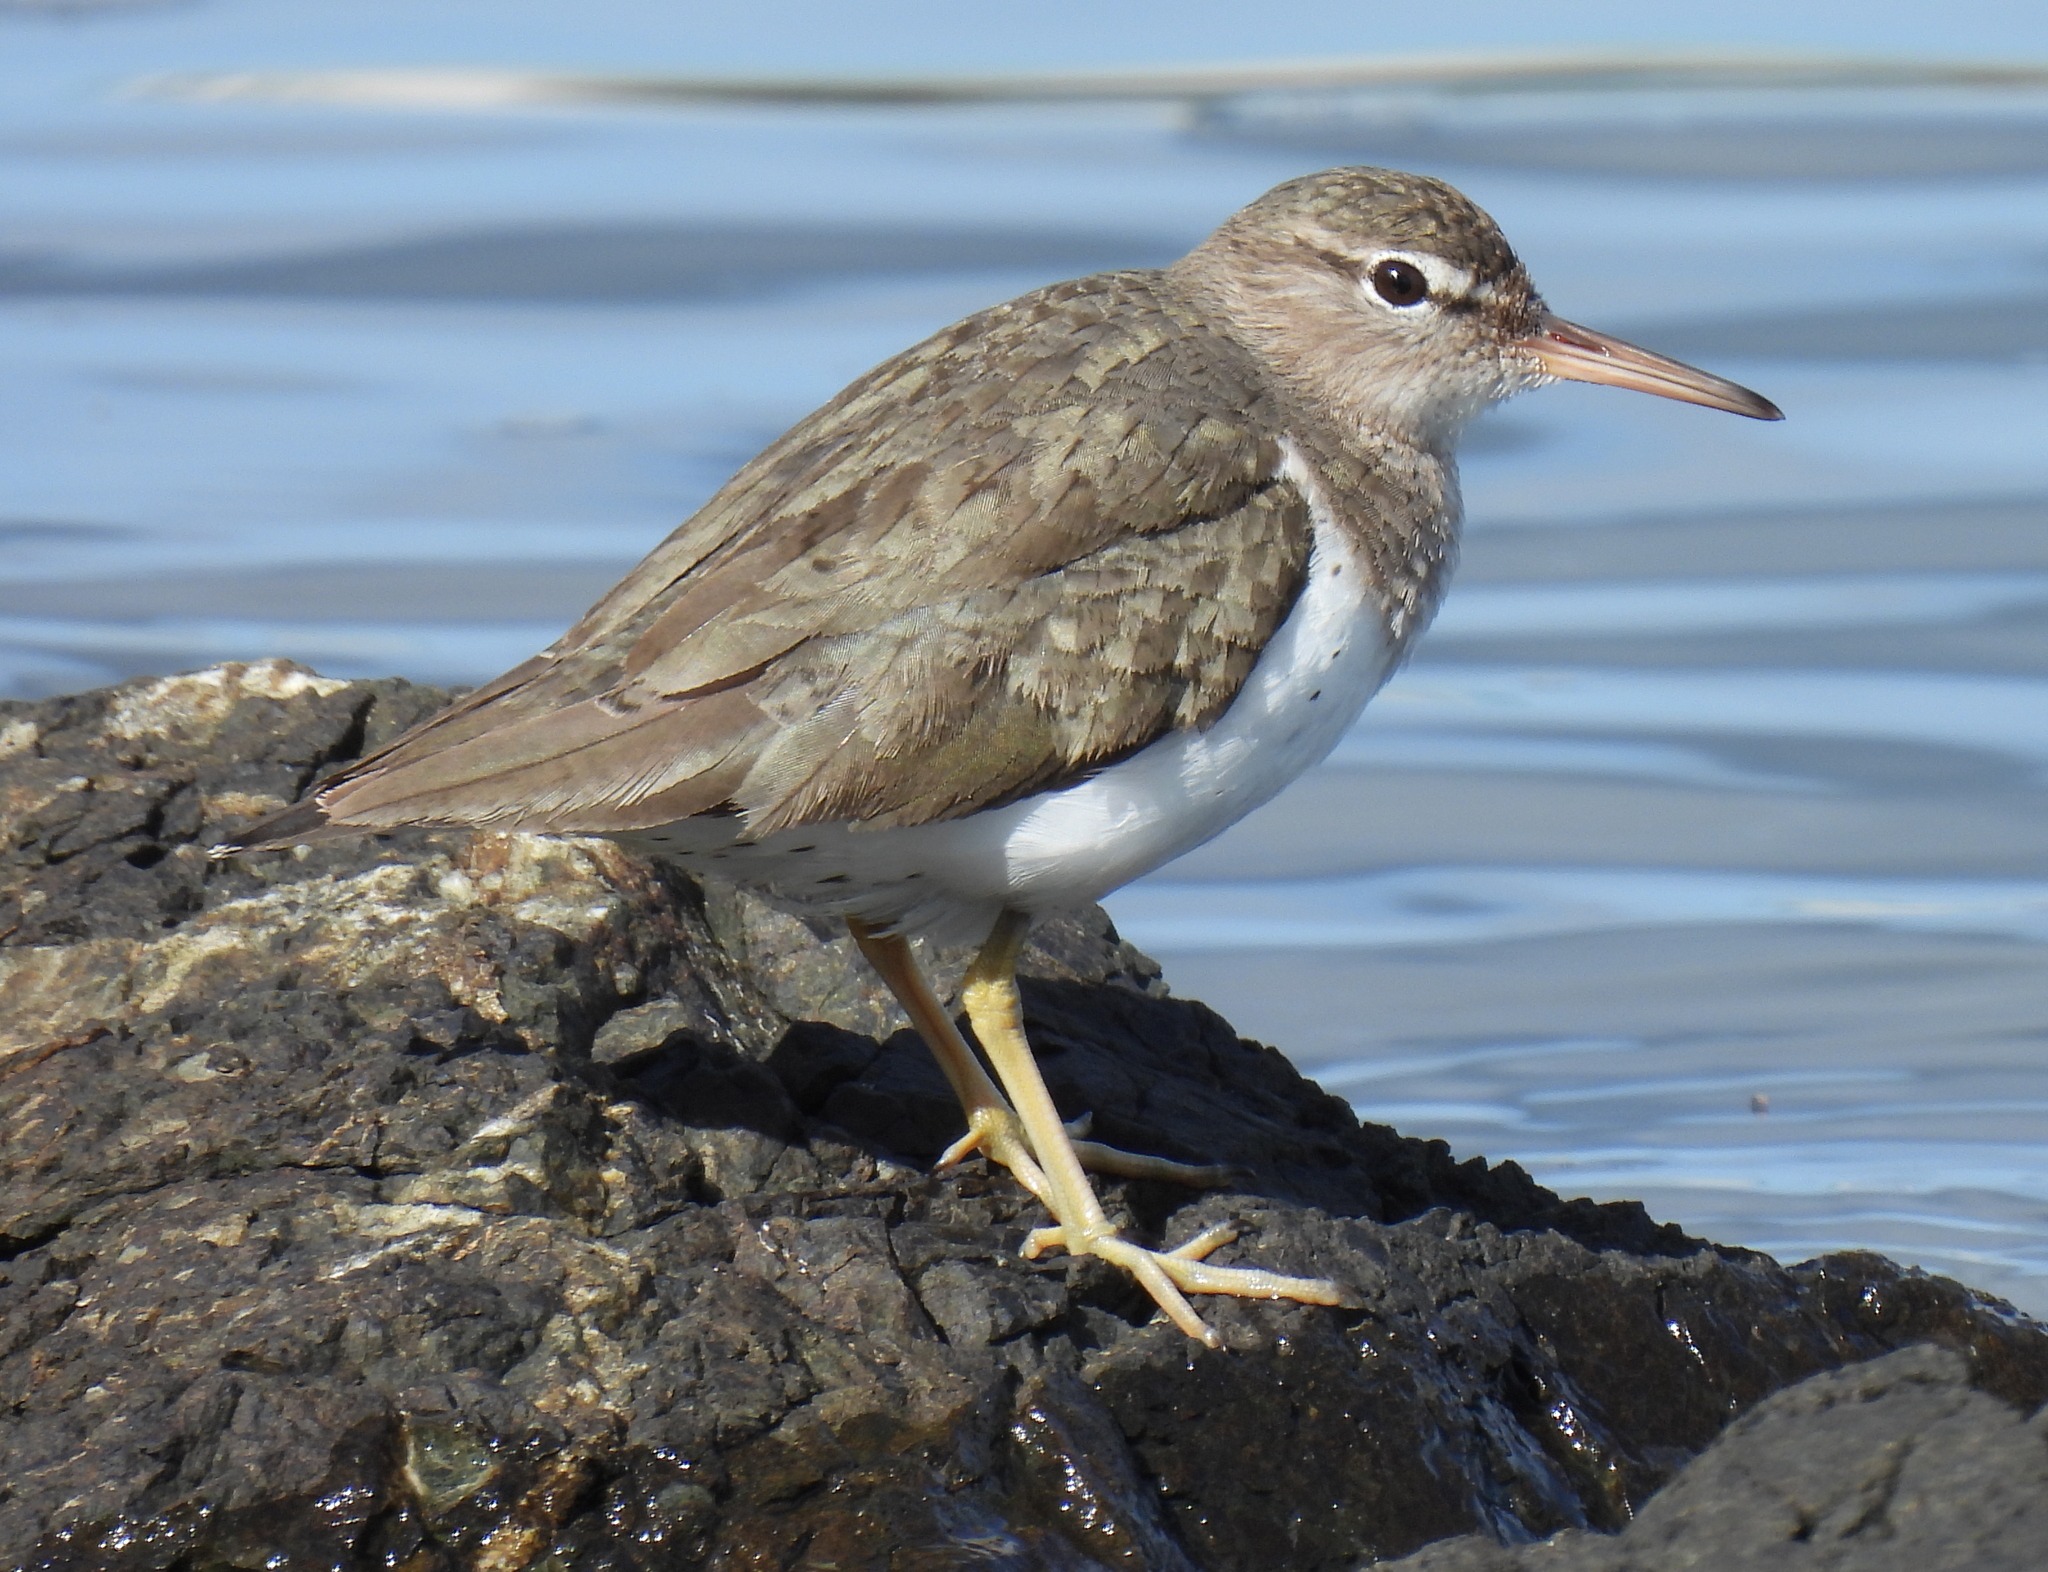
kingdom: Animalia
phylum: Chordata
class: Aves
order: Charadriiformes
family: Scolopacidae
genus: Actitis
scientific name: Actitis macularius
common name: Spotted sandpiper
